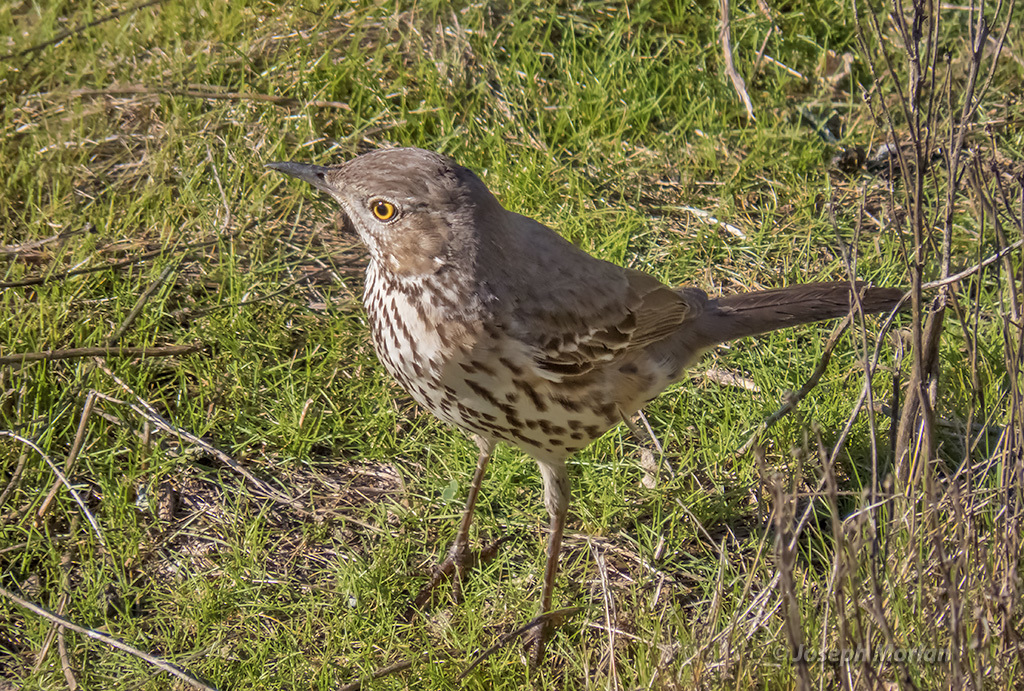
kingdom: Animalia
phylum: Chordata
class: Aves
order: Passeriformes
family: Mimidae
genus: Oreoscoptes
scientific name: Oreoscoptes montanus
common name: Sage thrasher
